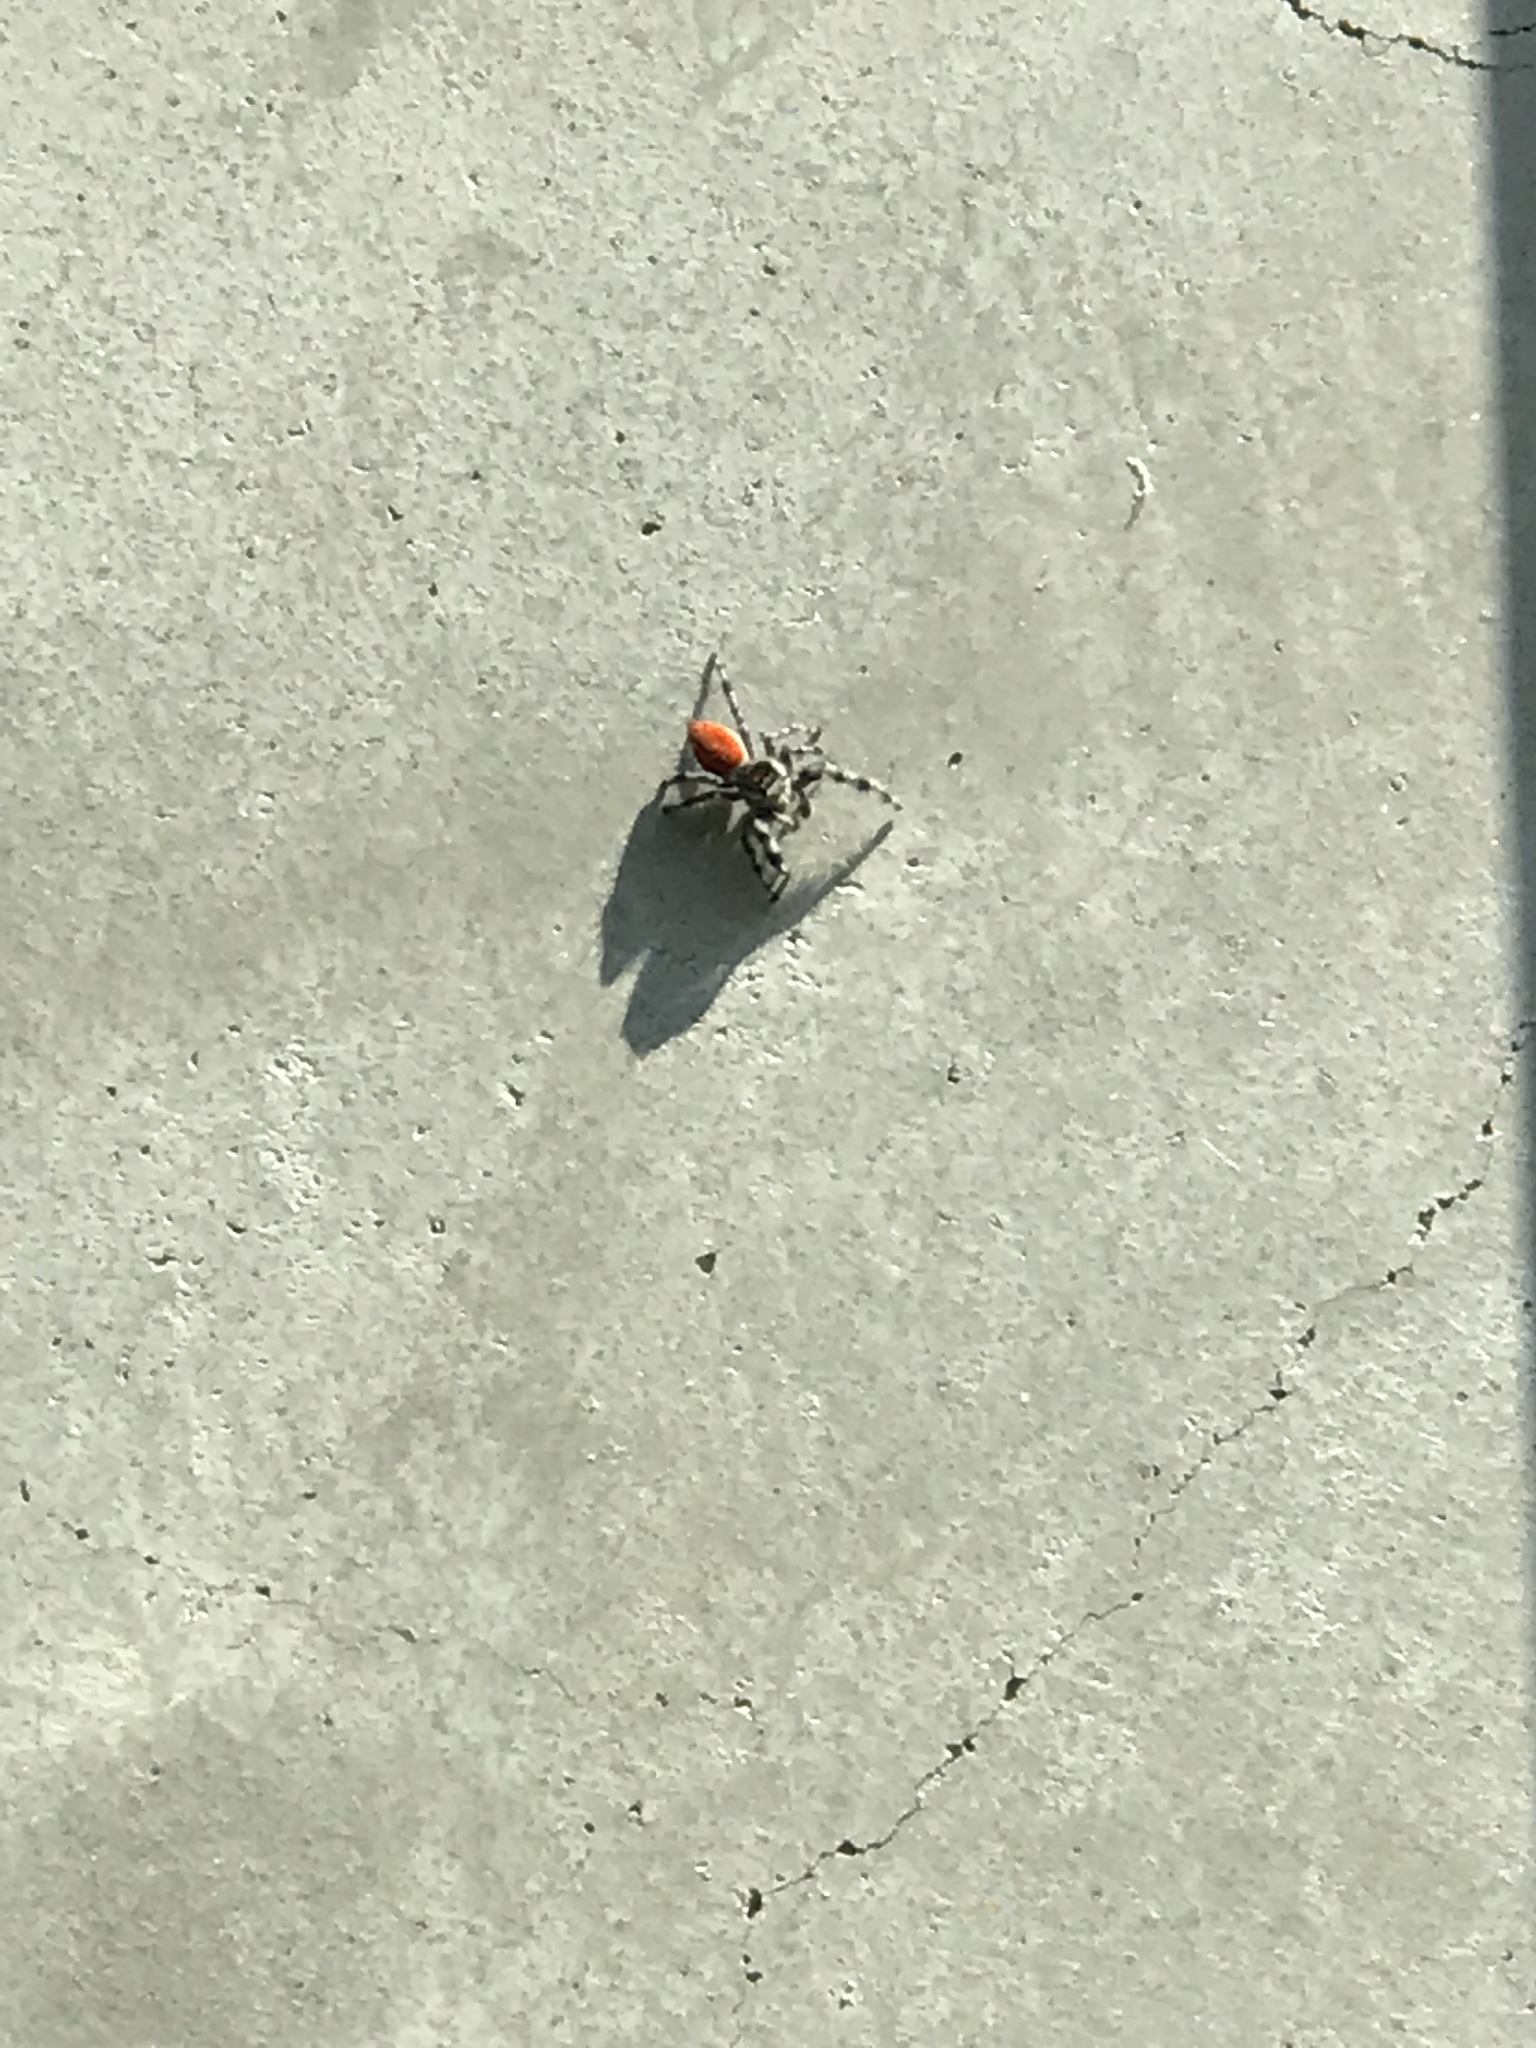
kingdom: Animalia
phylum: Arthropoda
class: Arachnida
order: Araneae
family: Salticidae
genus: Phidippus
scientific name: Phidippus adumbratus
